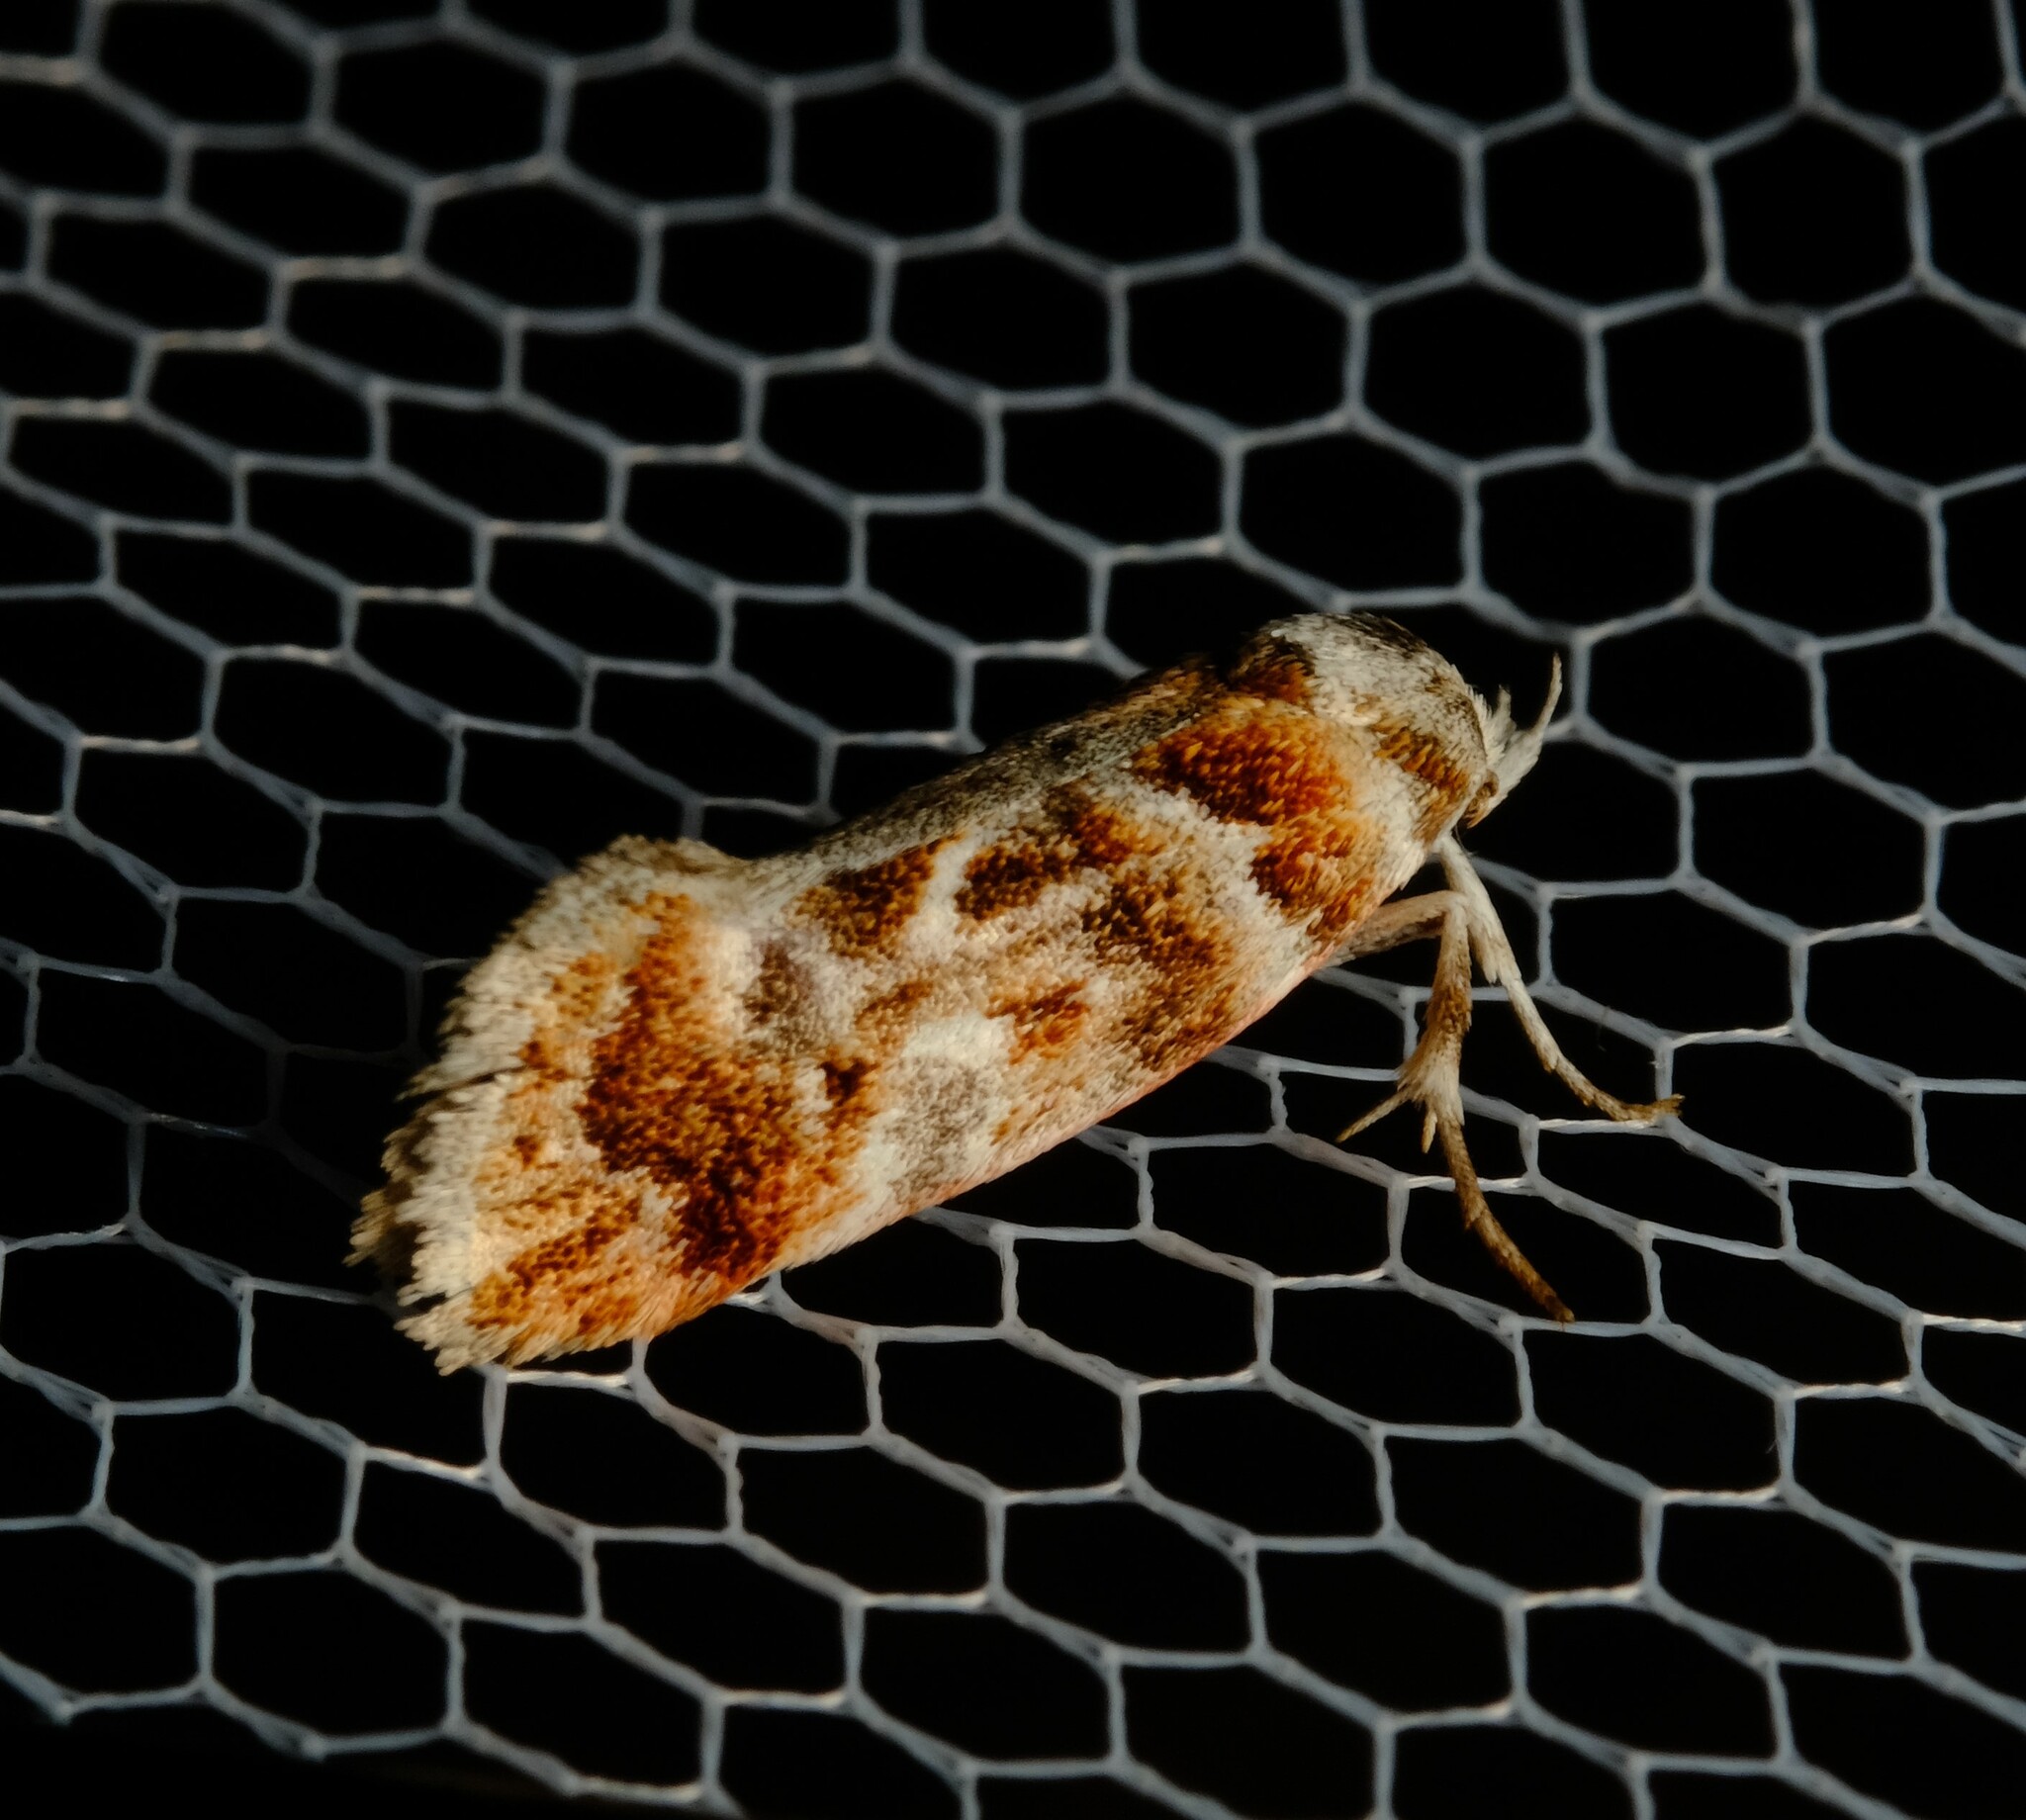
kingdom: Animalia
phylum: Arthropoda
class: Insecta
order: Lepidoptera
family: Oecophoridae
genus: Acmotoma
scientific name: Acmotoma magniferella
